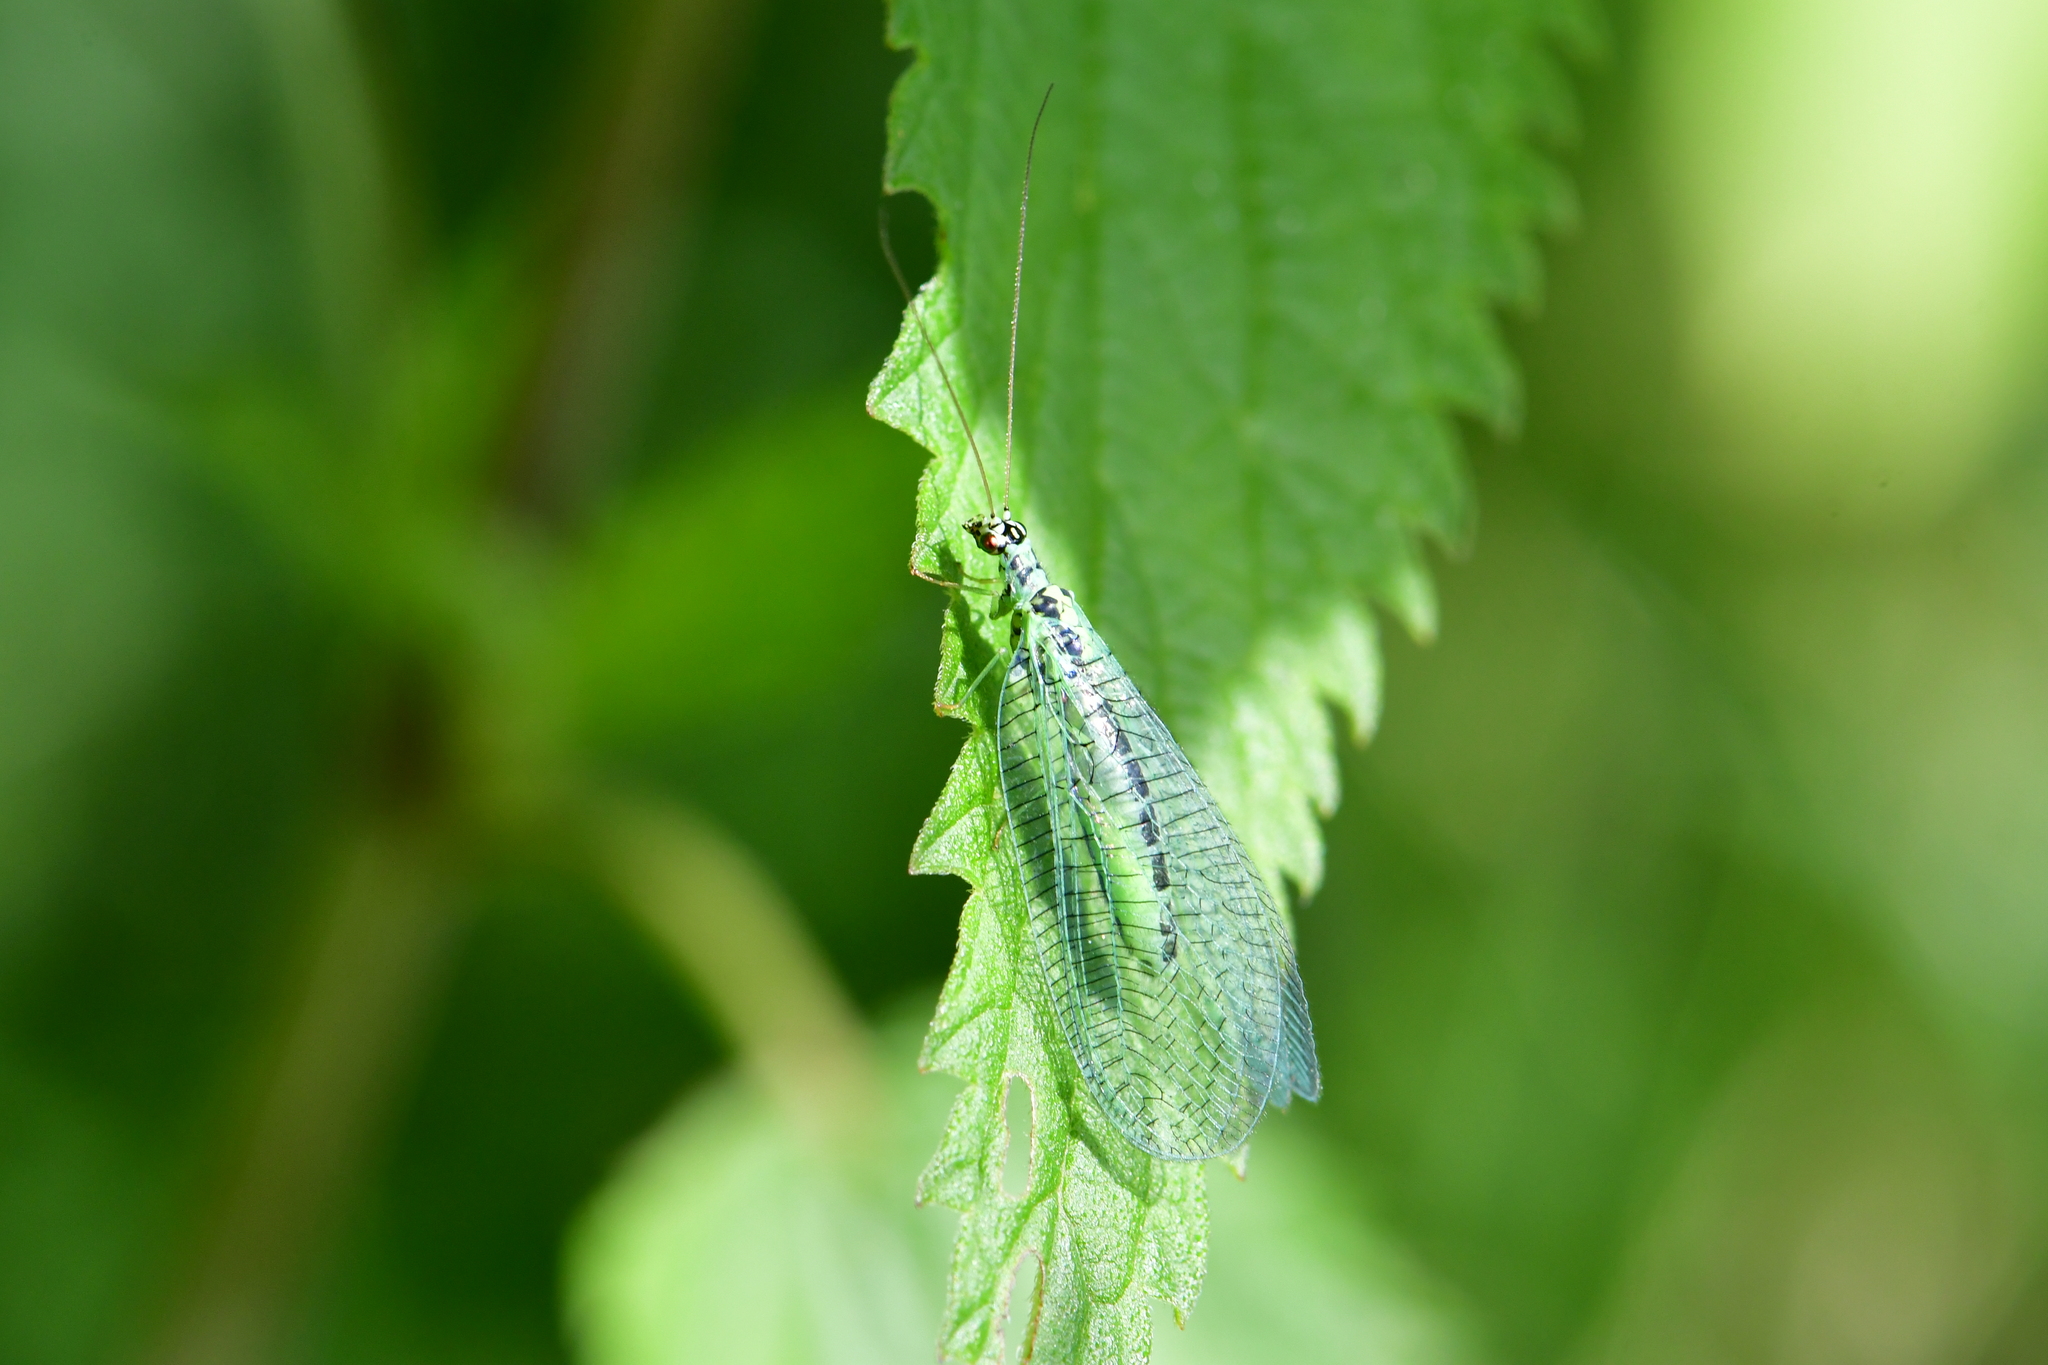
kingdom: Animalia
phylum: Arthropoda
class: Insecta
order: Neuroptera
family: Chrysopidae
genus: Chrysopa
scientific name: Chrysopa perla
